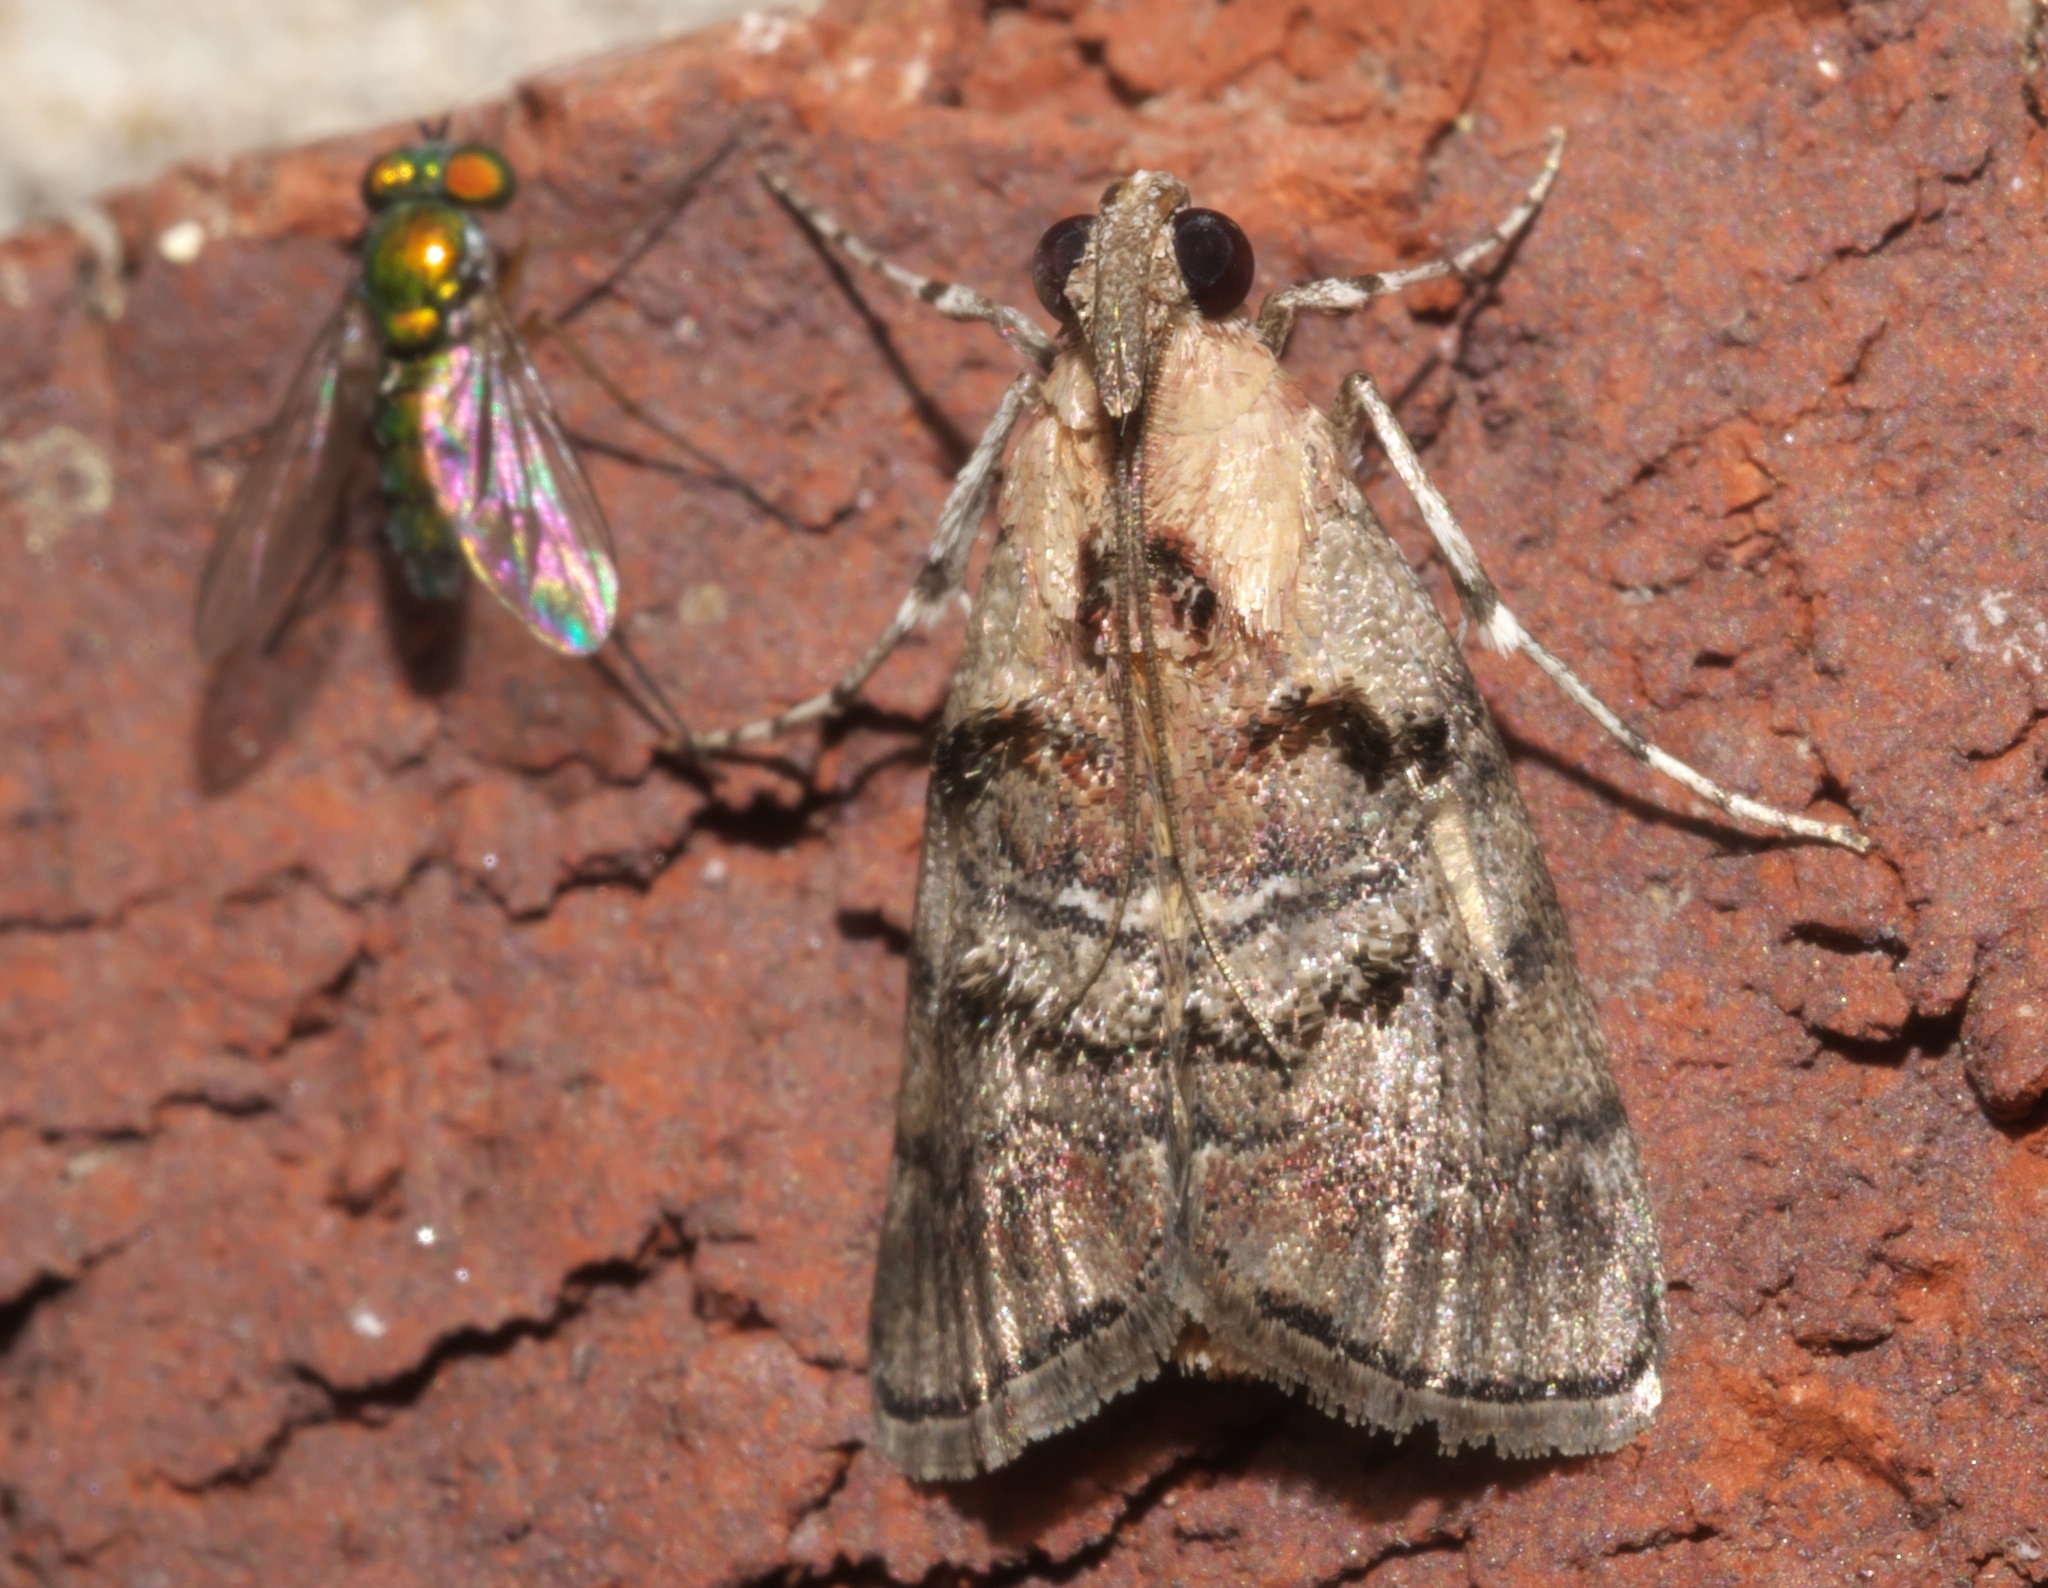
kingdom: Animalia
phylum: Arthropoda
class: Insecta
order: Lepidoptera
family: Pyralidae
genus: Pococera
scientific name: Pococera expandens
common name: Striped oak webworm moth
